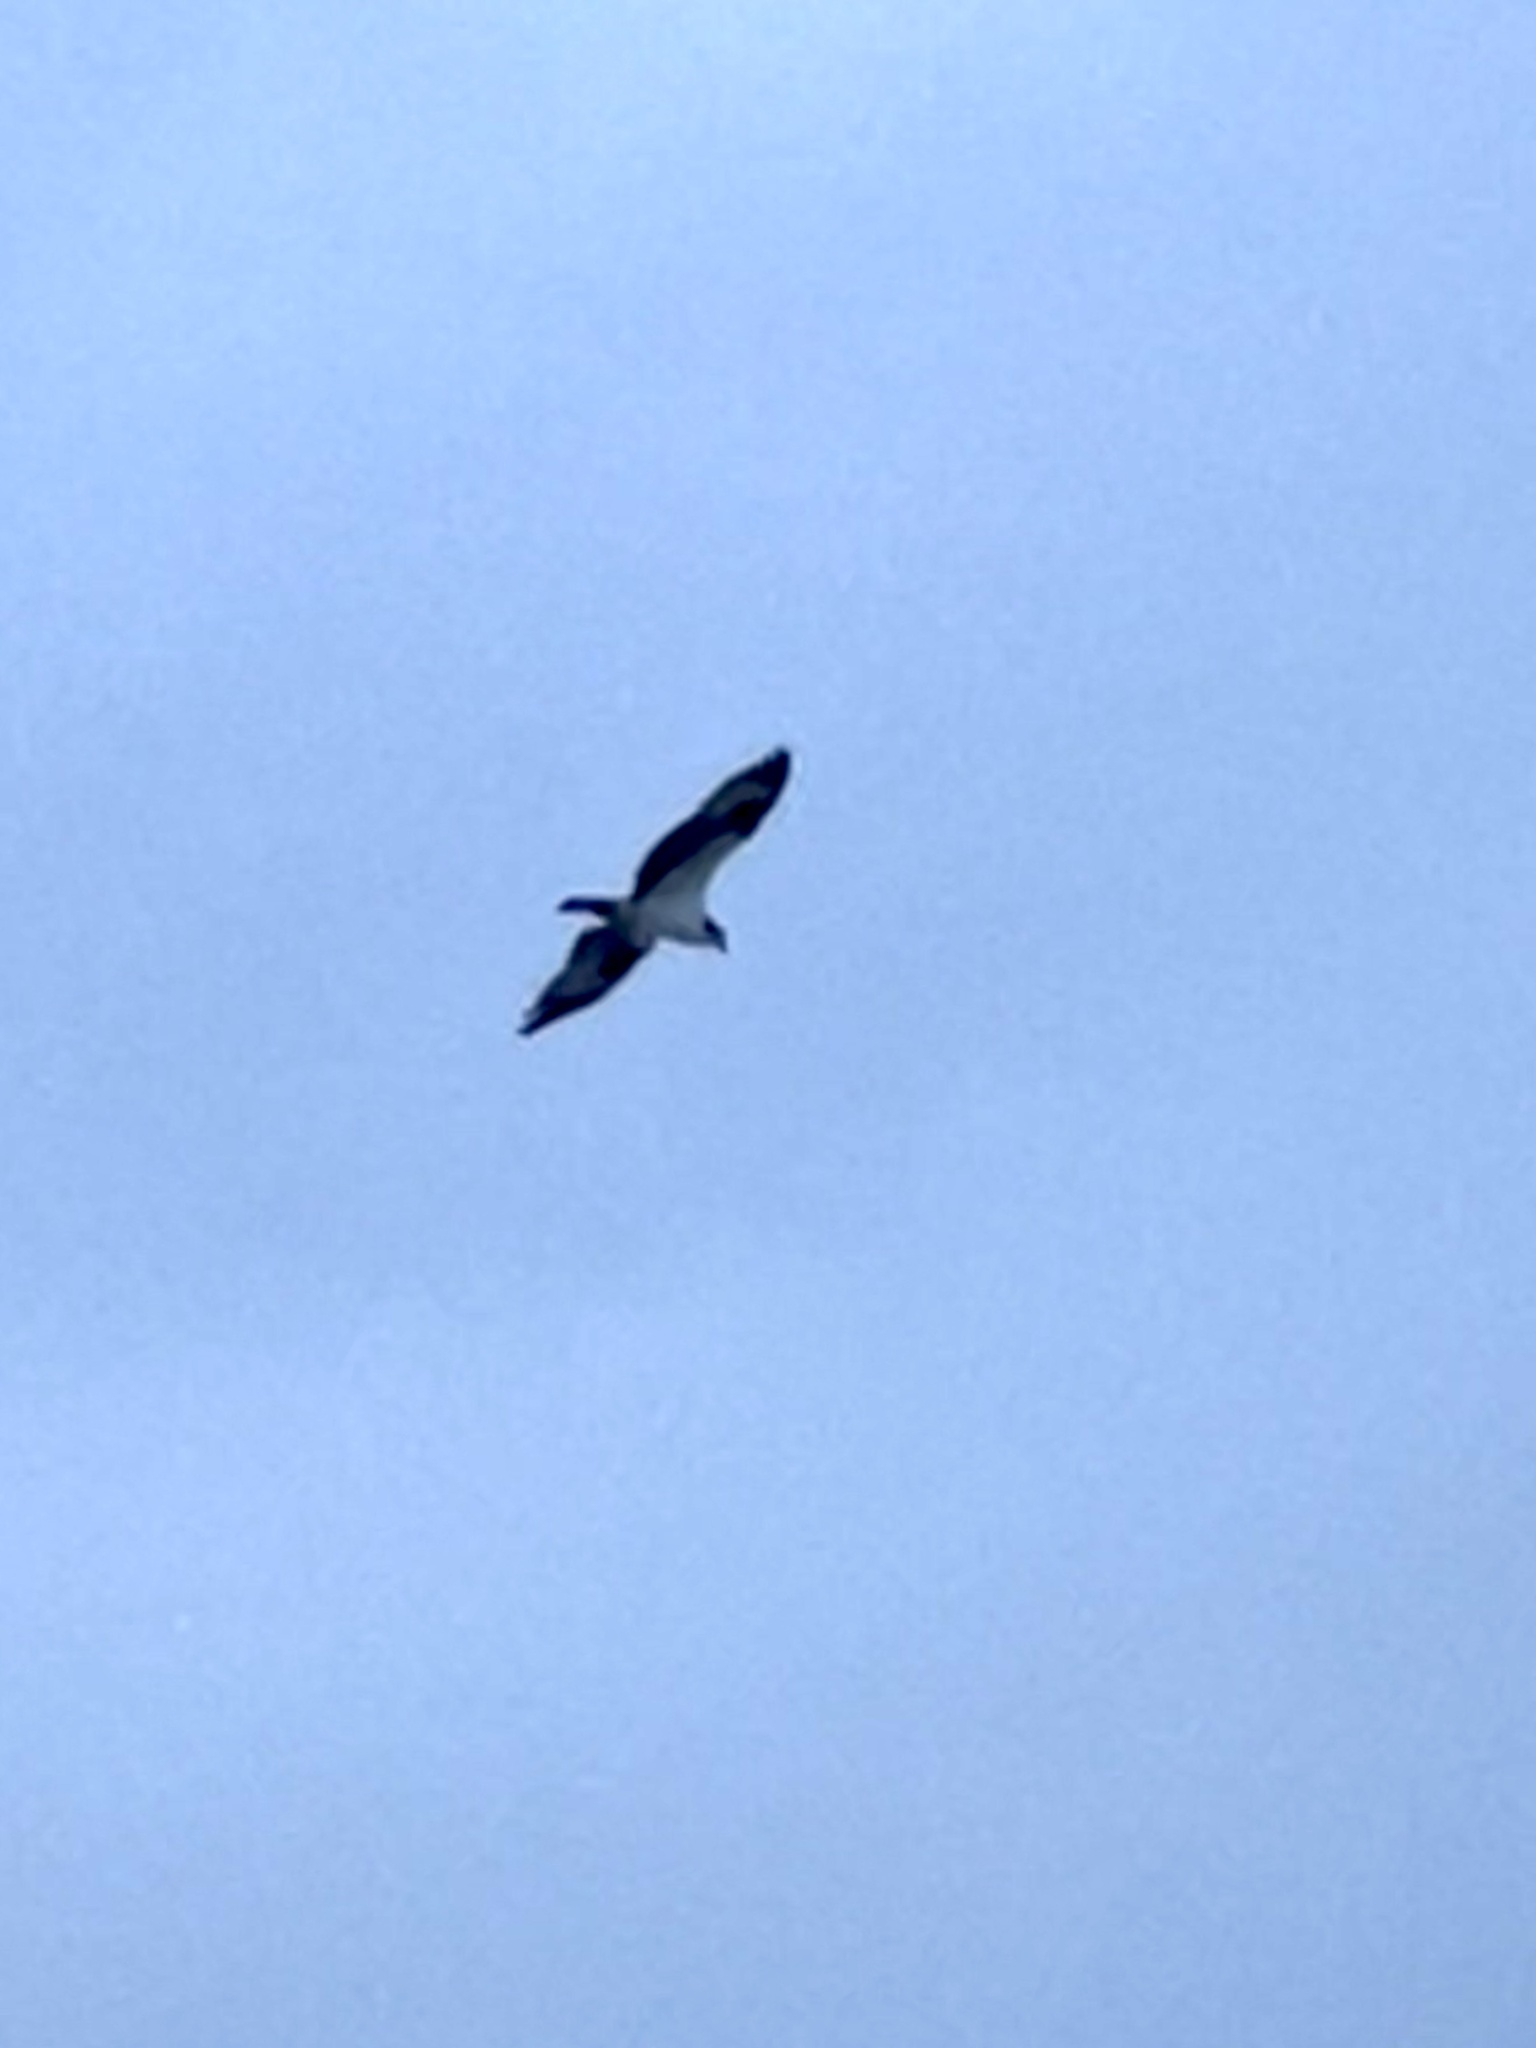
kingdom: Animalia
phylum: Chordata
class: Aves
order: Accipitriformes
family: Pandionidae
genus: Pandion
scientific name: Pandion haliaetus
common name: Osprey
